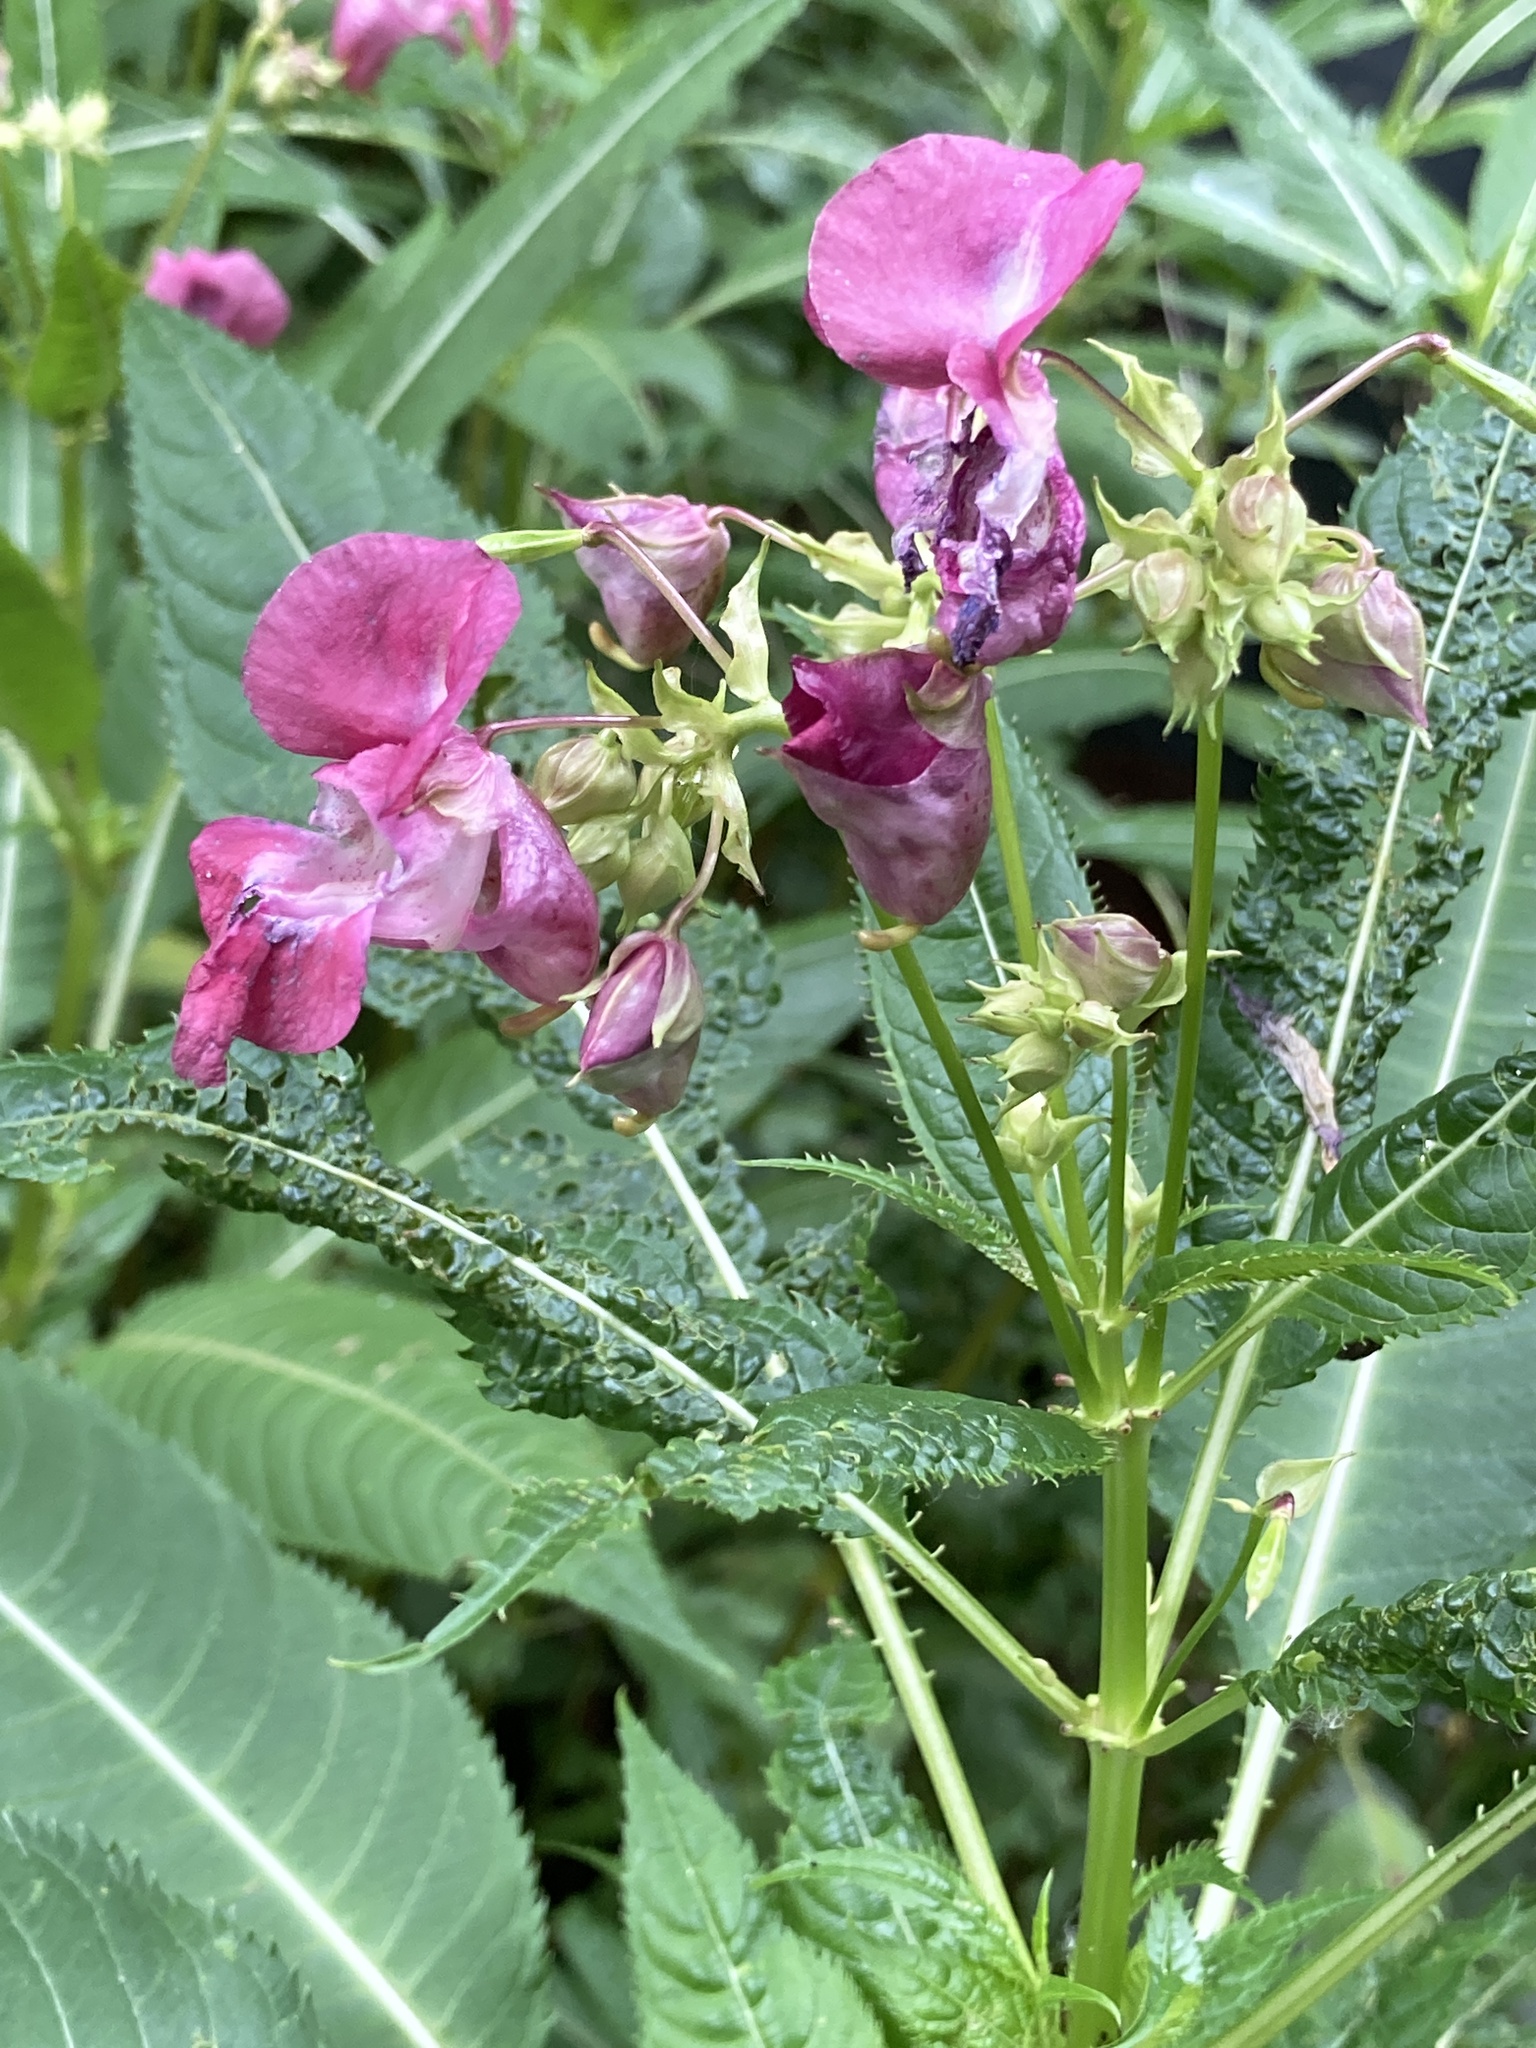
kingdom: Plantae
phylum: Tracheophyta
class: Magnoliopsida
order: Ericales
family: Balsaminaceae
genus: Impatiens
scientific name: Impatiens glandulifera
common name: Himalayan balsam
